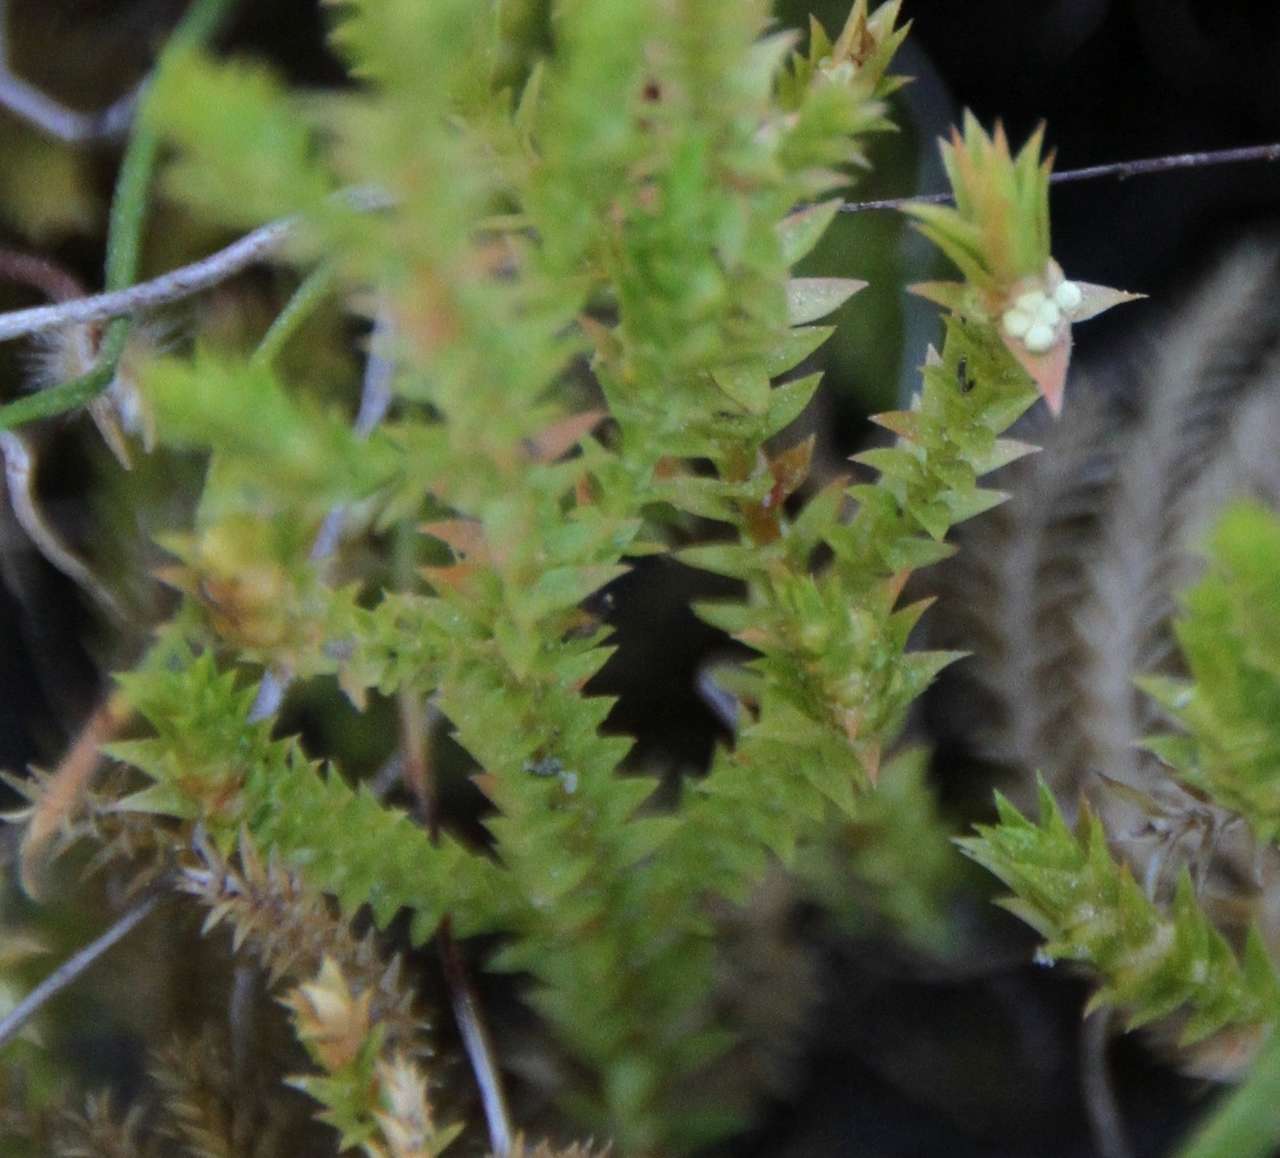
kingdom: Plantae
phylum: Tracheophyta
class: Lycopodiopsida
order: Selaginellales
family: Selaginellaceae
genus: Selaginella
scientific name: Selaginella uliginosa
